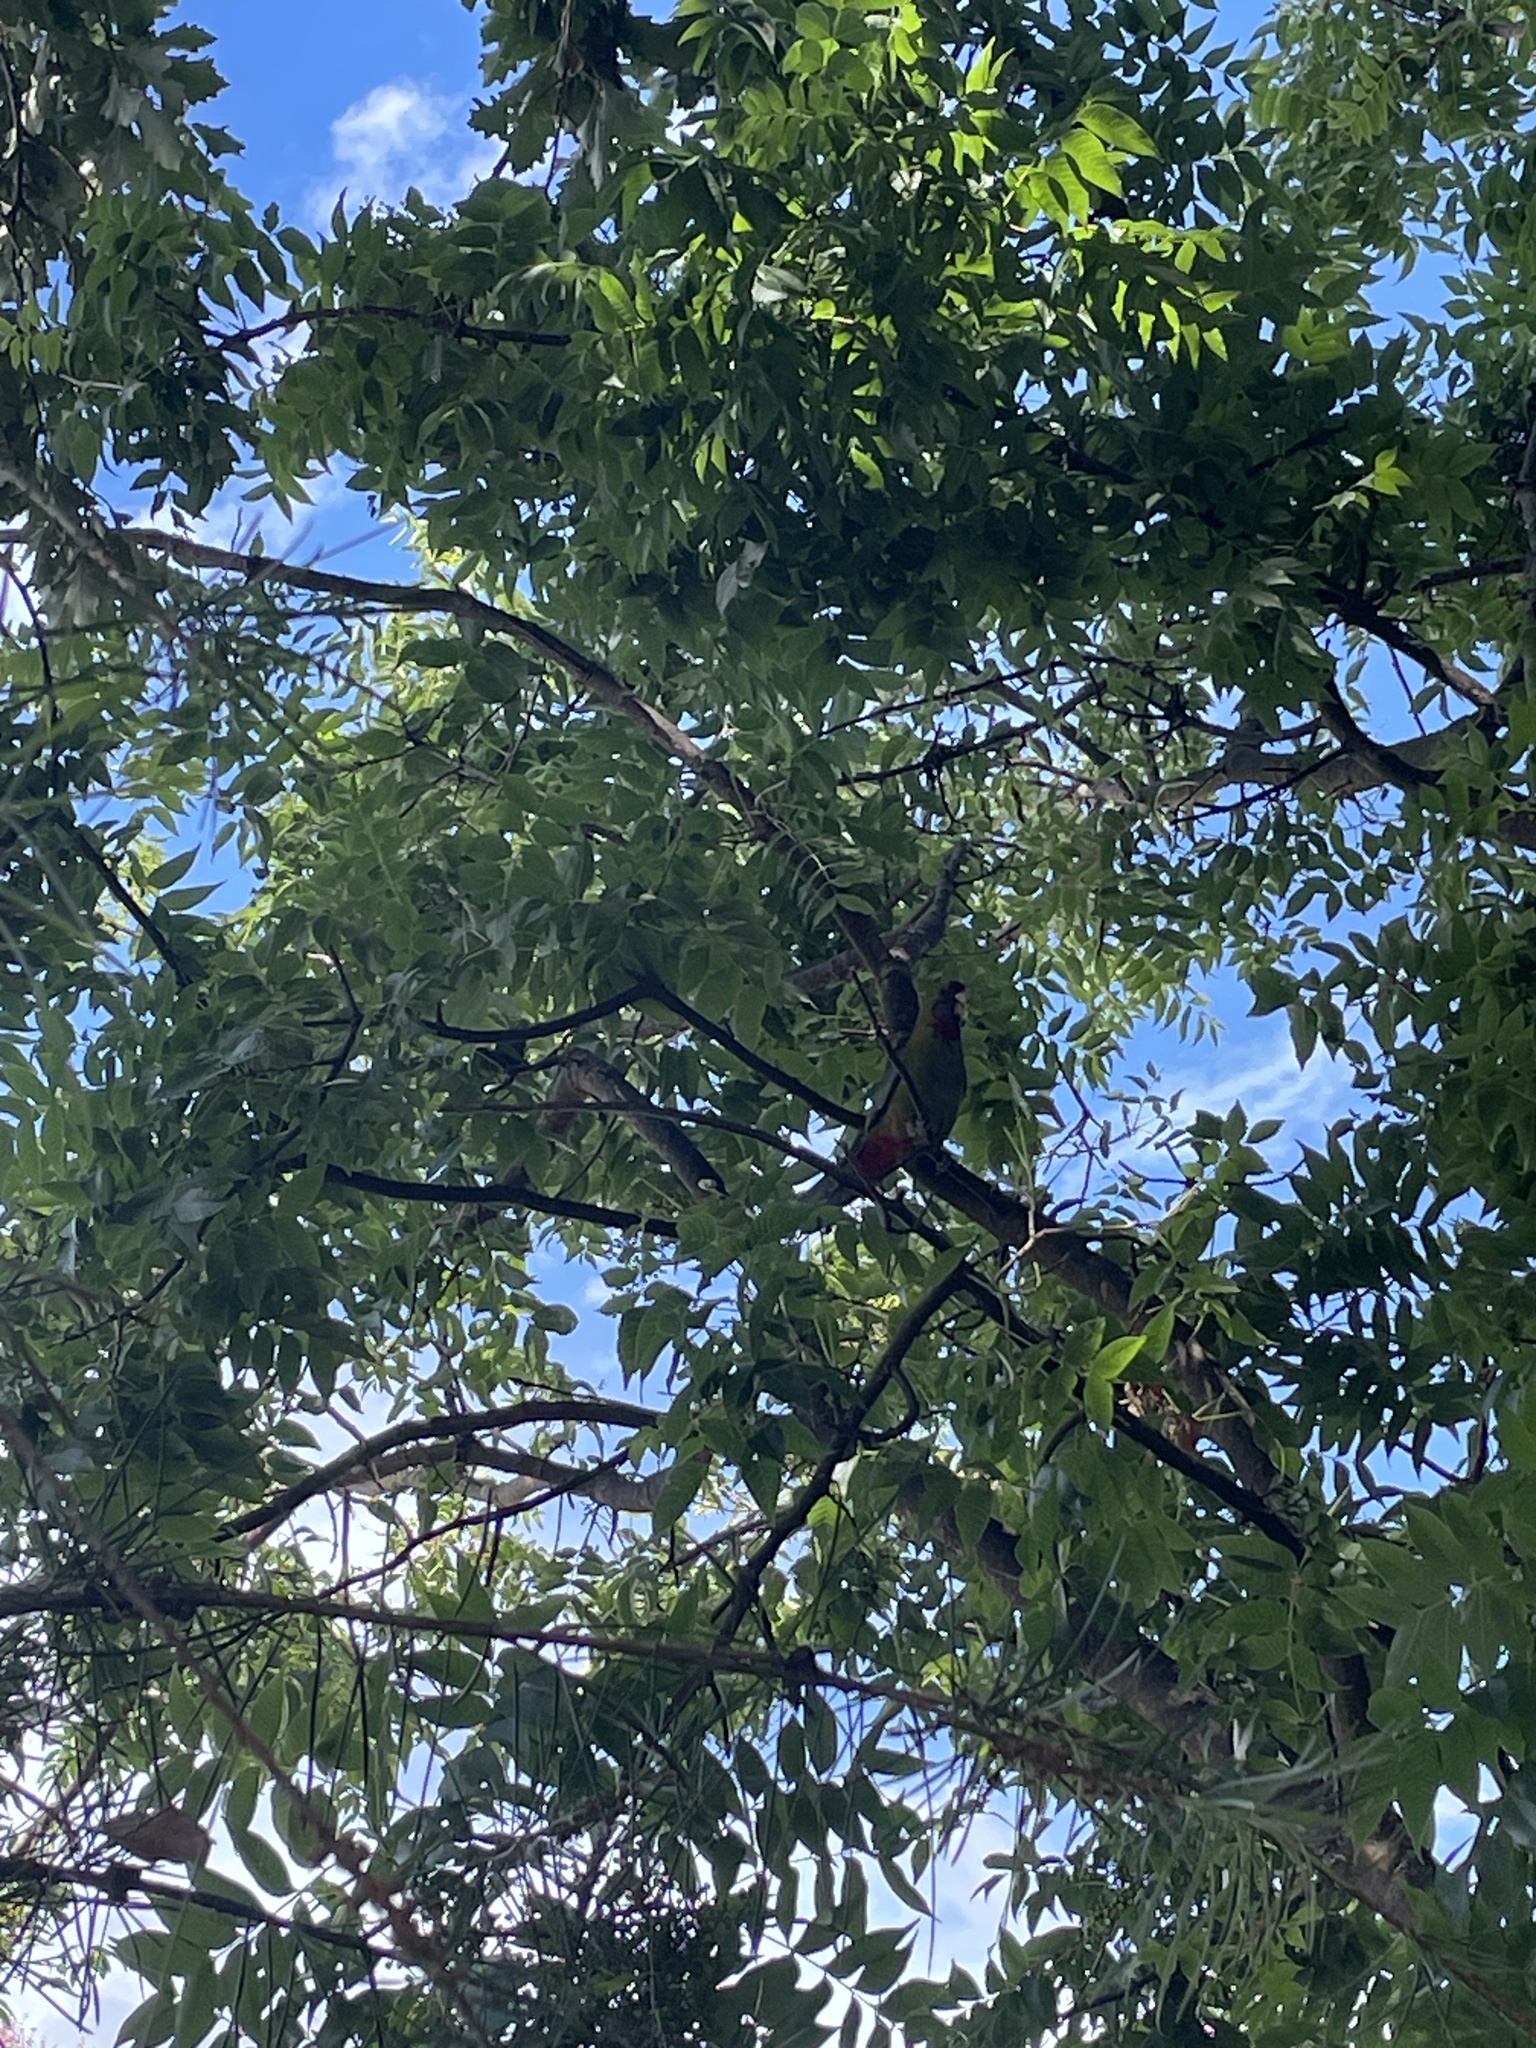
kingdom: Animalia
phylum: Chordata
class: Aves
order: Psittaciformes
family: Psittacidae
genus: Platycercus
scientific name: Platycercus elegans
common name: Crimson rosella
